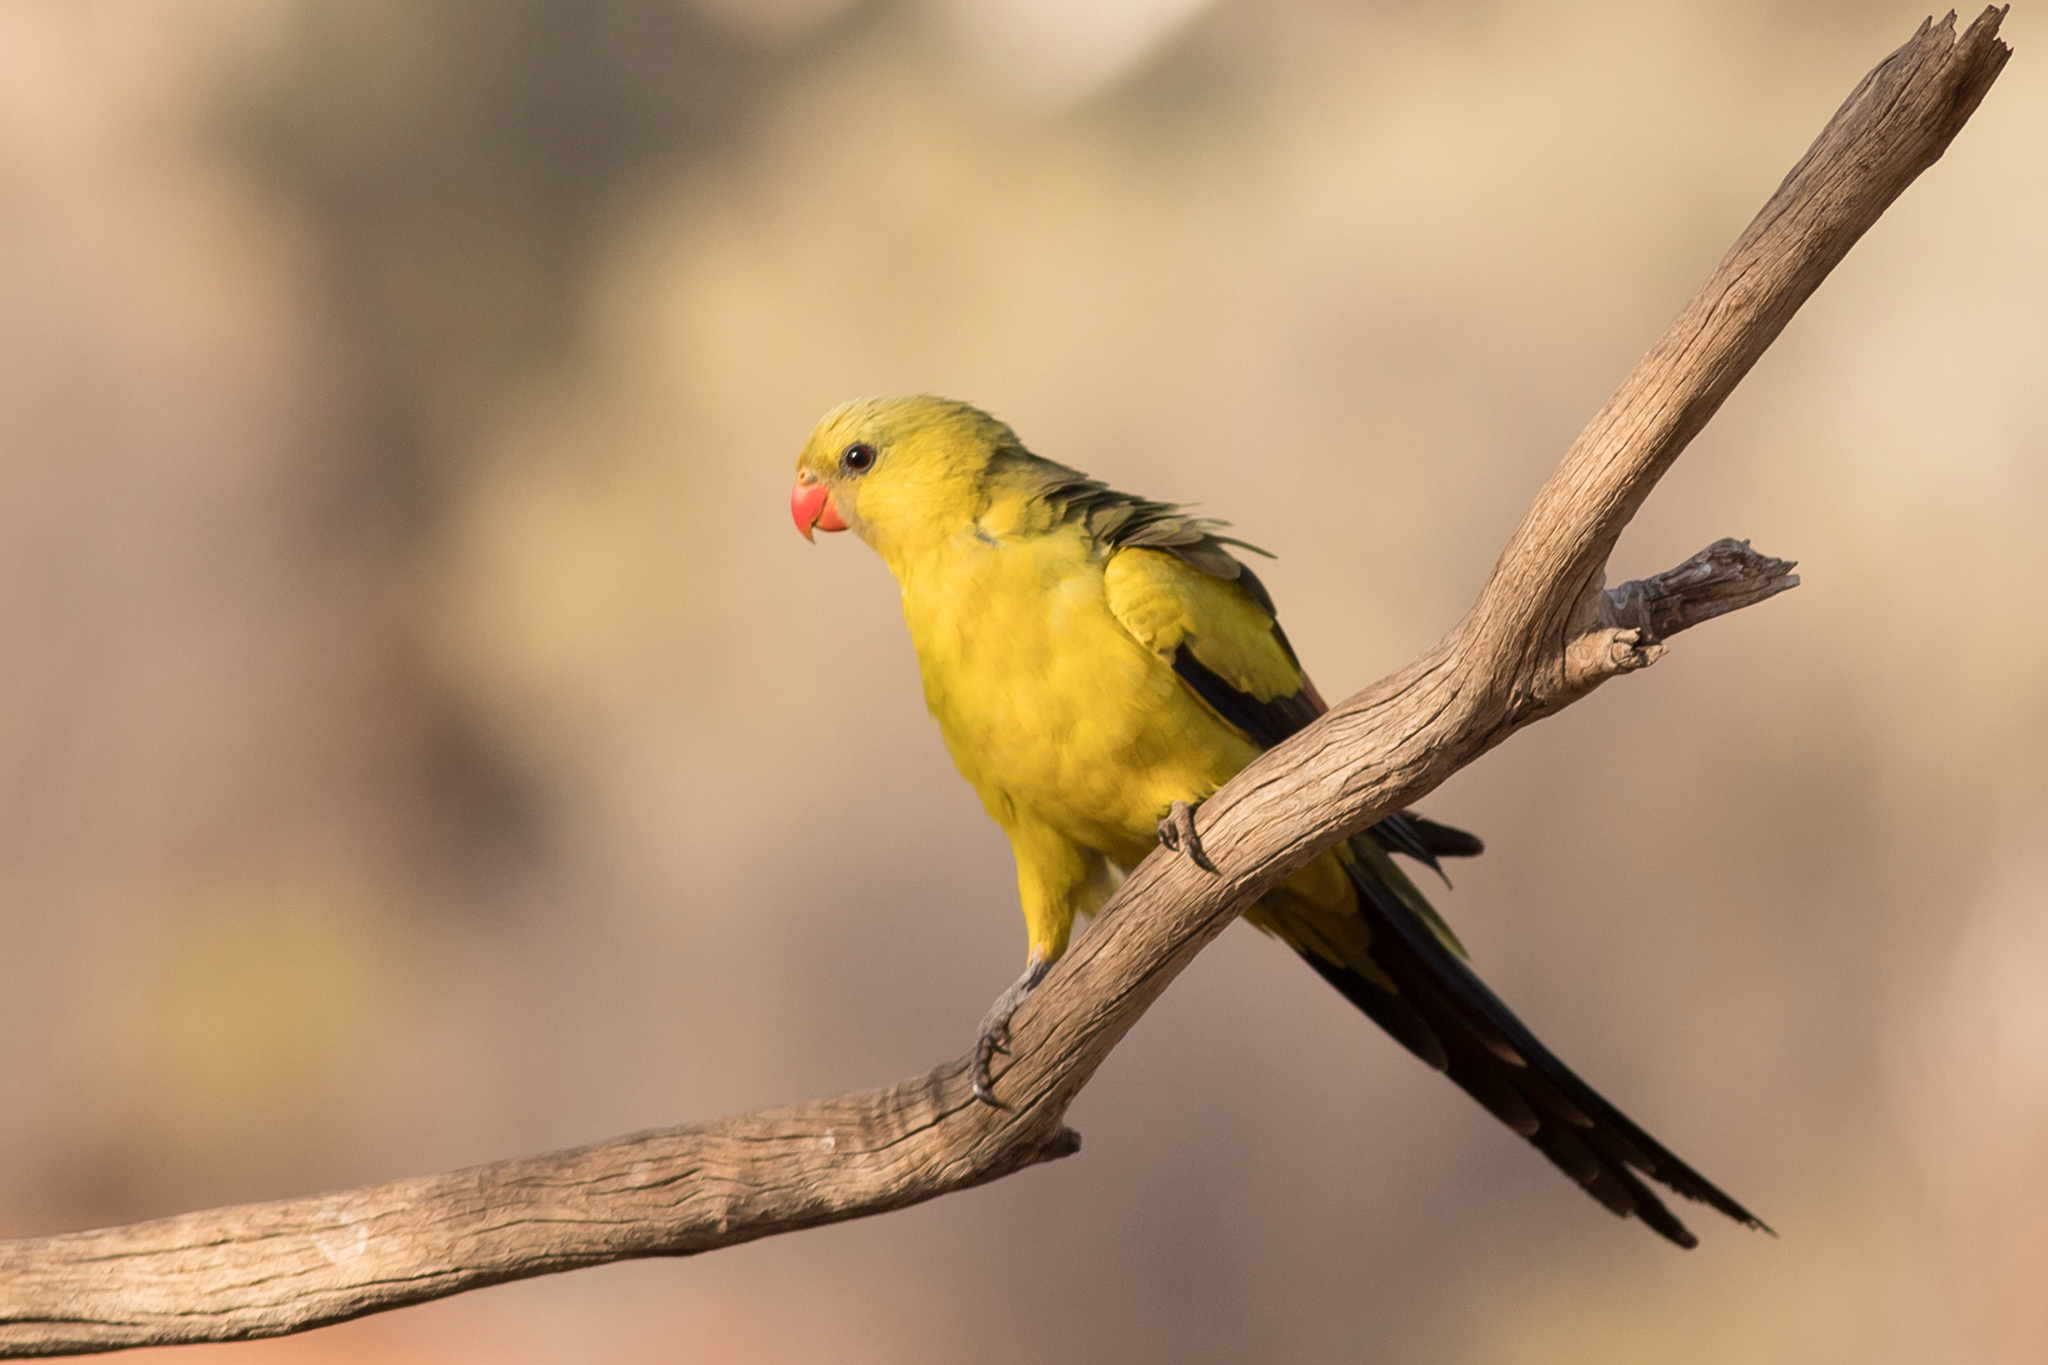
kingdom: Animalia
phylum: Chordata
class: Aves
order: Psittaciformes
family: Psittacidae
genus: Polytelis
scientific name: Polytelis anthopeplus
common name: Regent parrot
